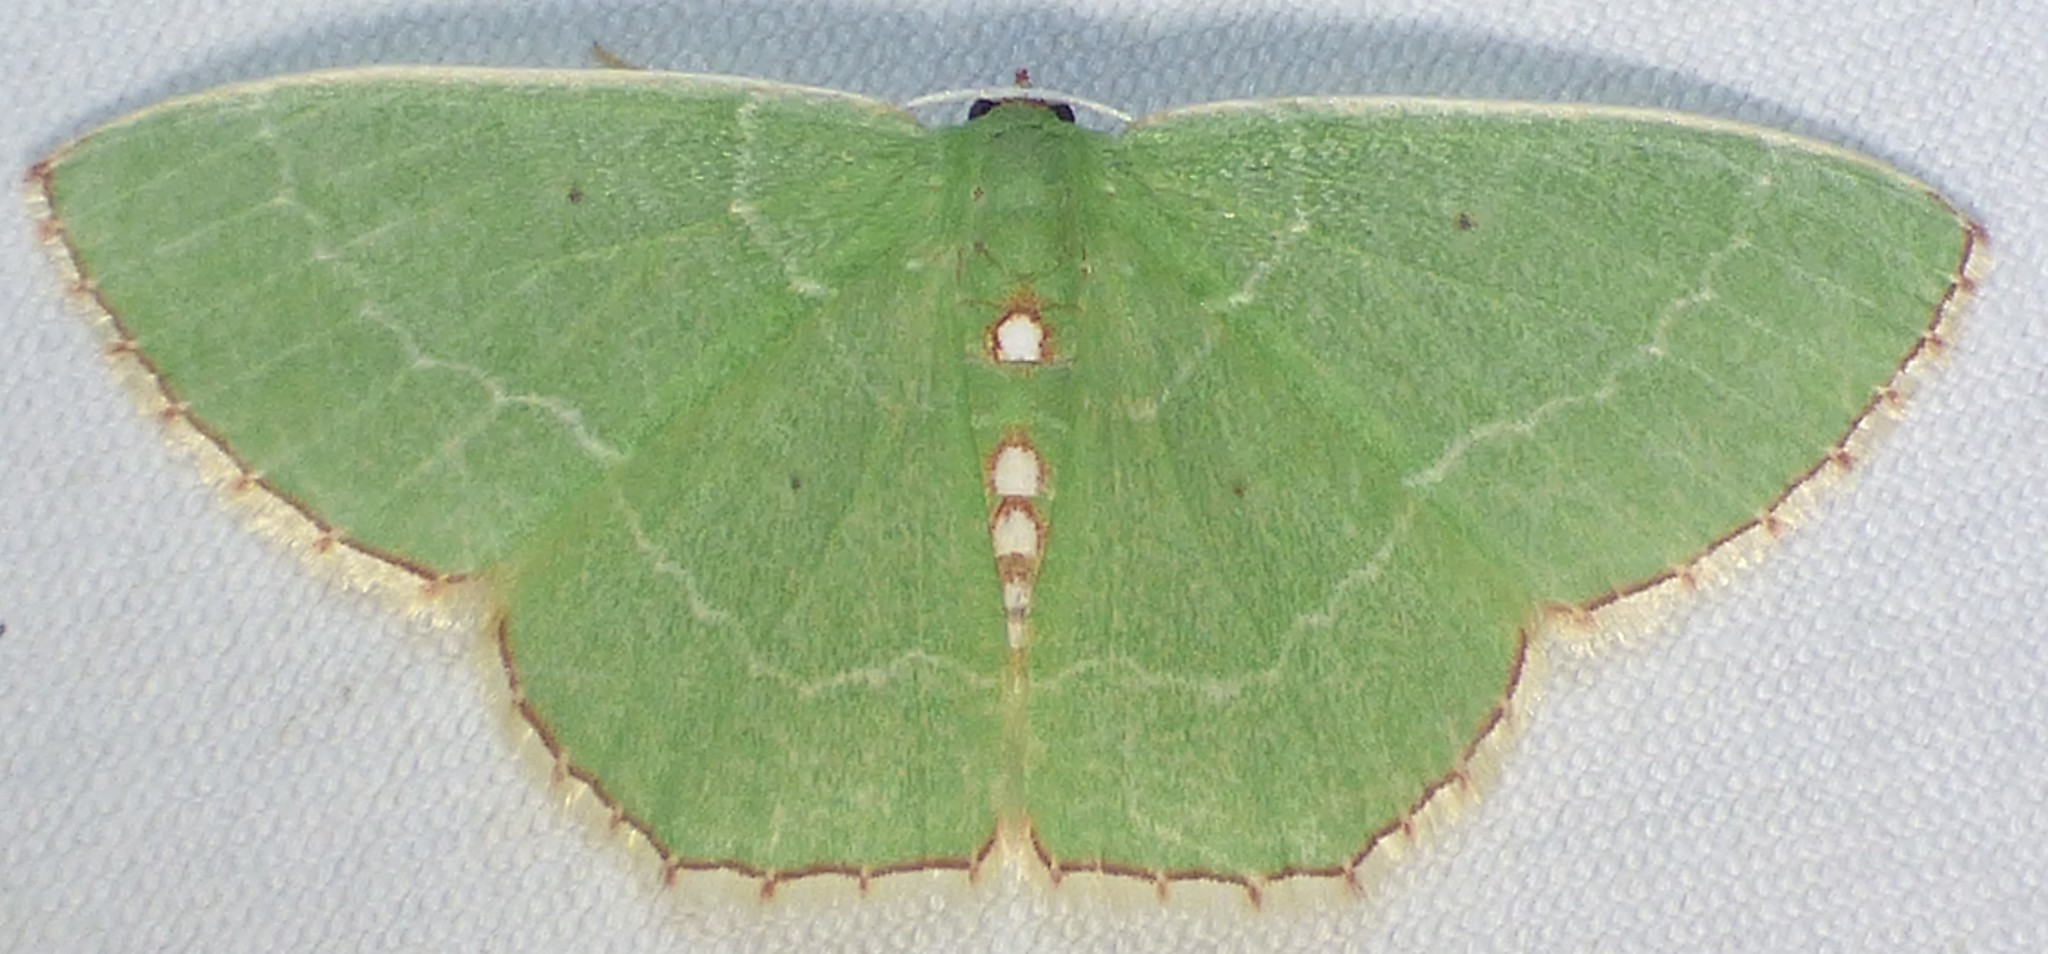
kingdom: Animalia
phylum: Arthropoda
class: Insecta
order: Lepidoptera
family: Geometridae
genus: Nemoria
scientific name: Nemoria lixaria
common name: Red-bordered emerald
